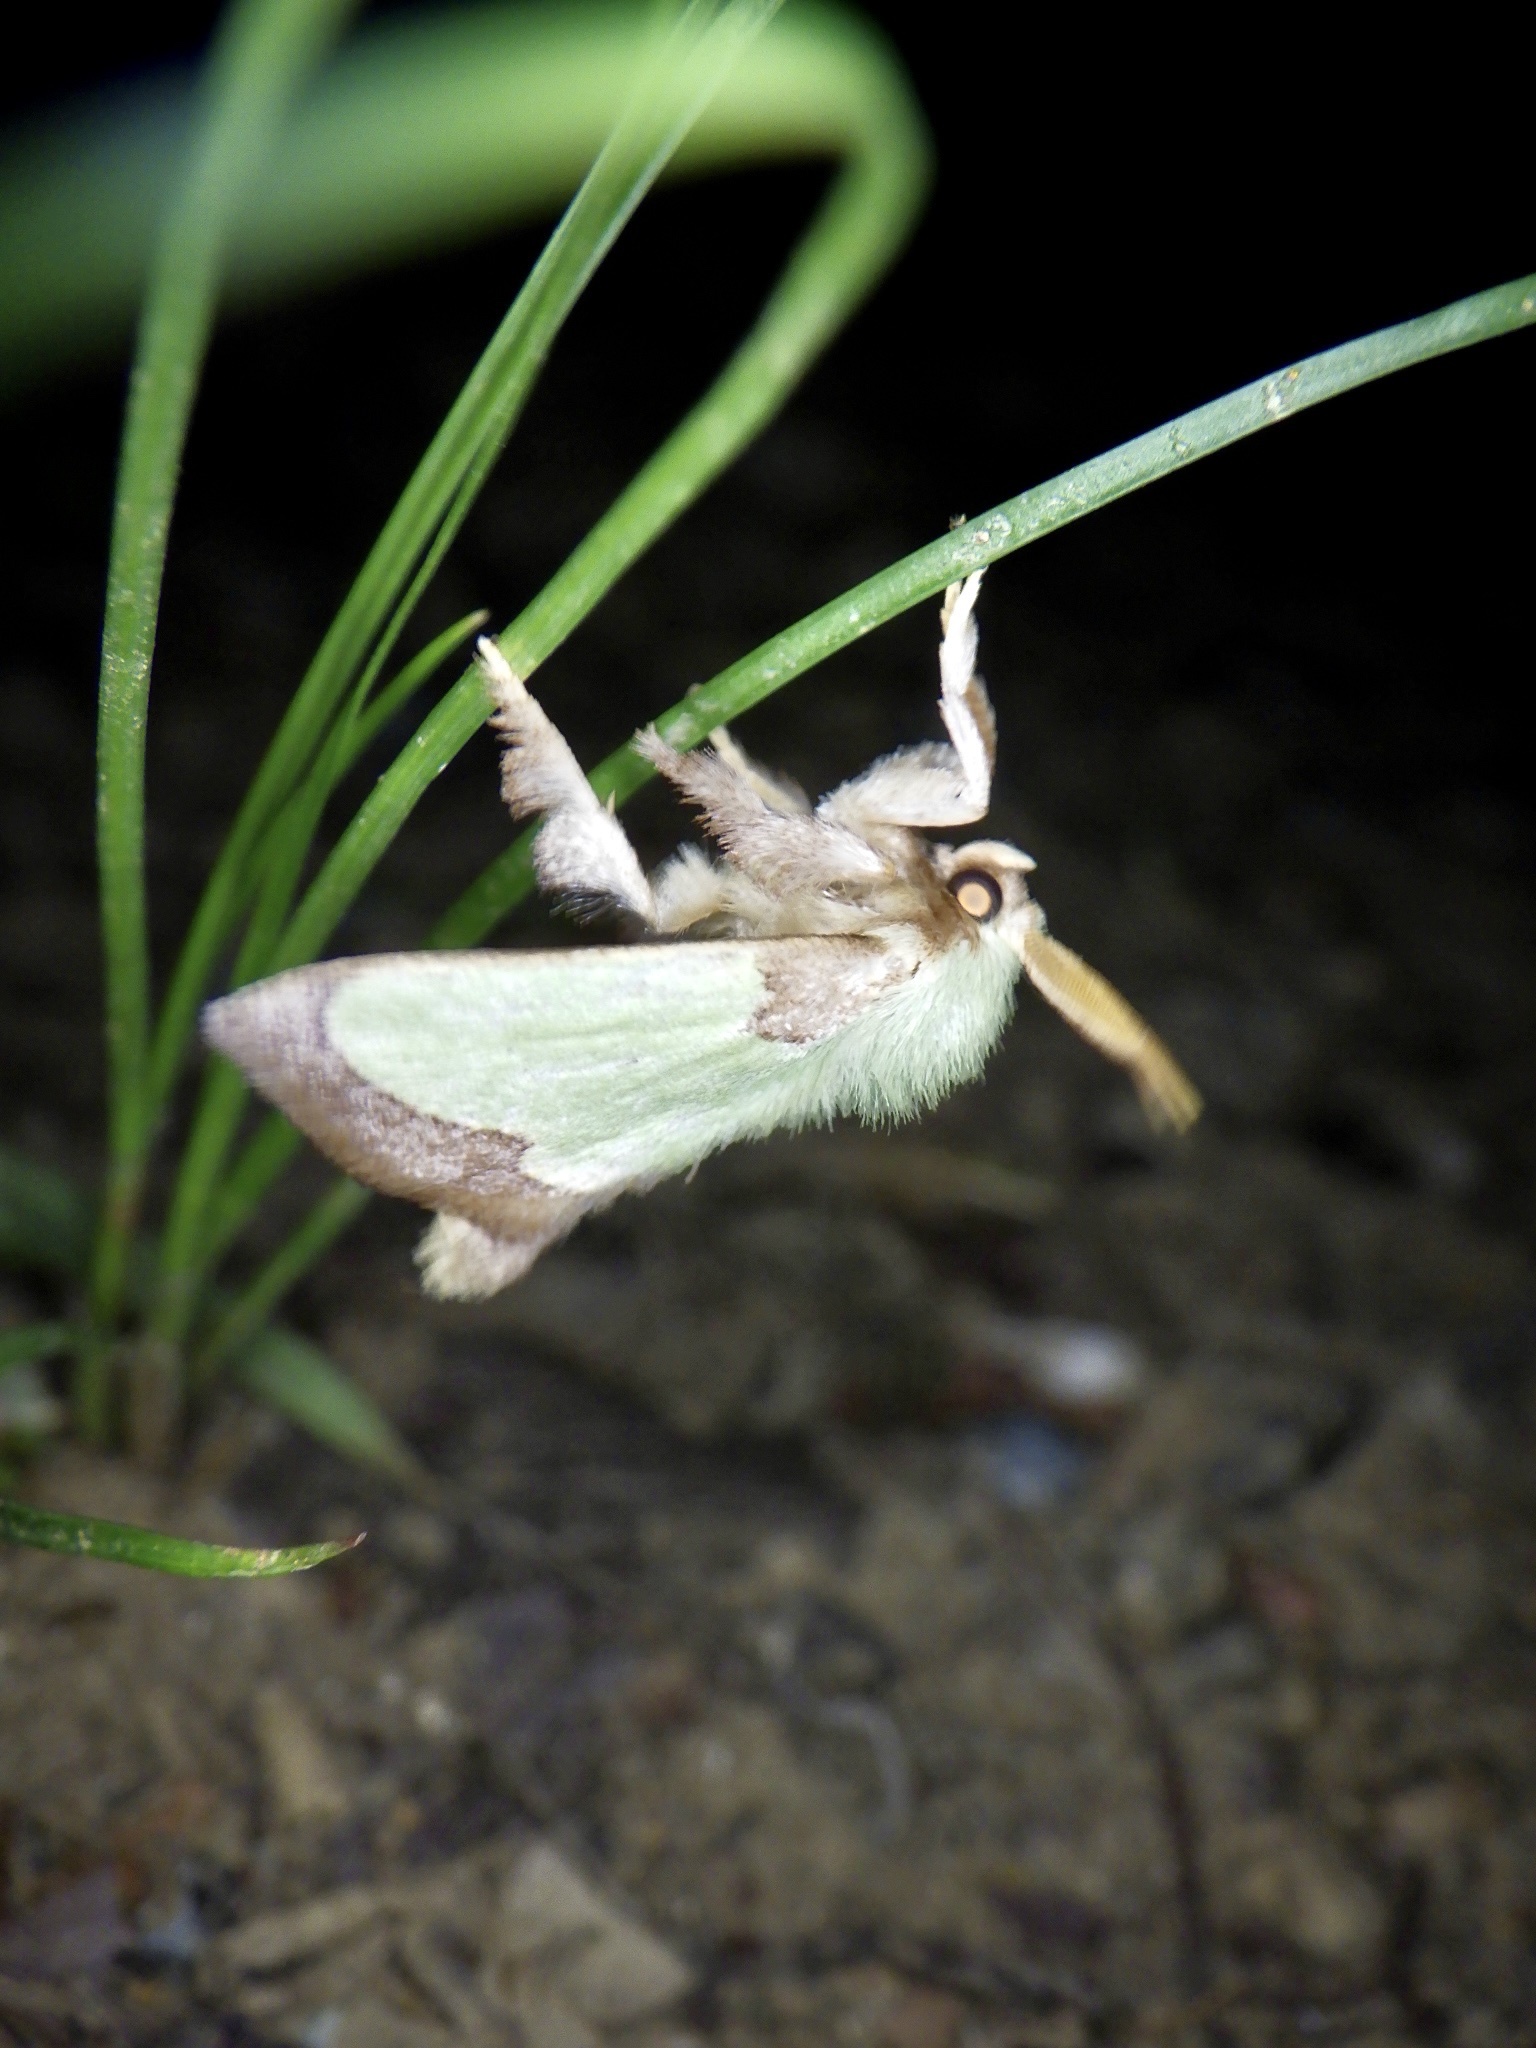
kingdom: Animalia
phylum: Arthropoda
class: Insecta
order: Lepidoptera
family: Limacodidae
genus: Parasa
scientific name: Parasa hilarula
